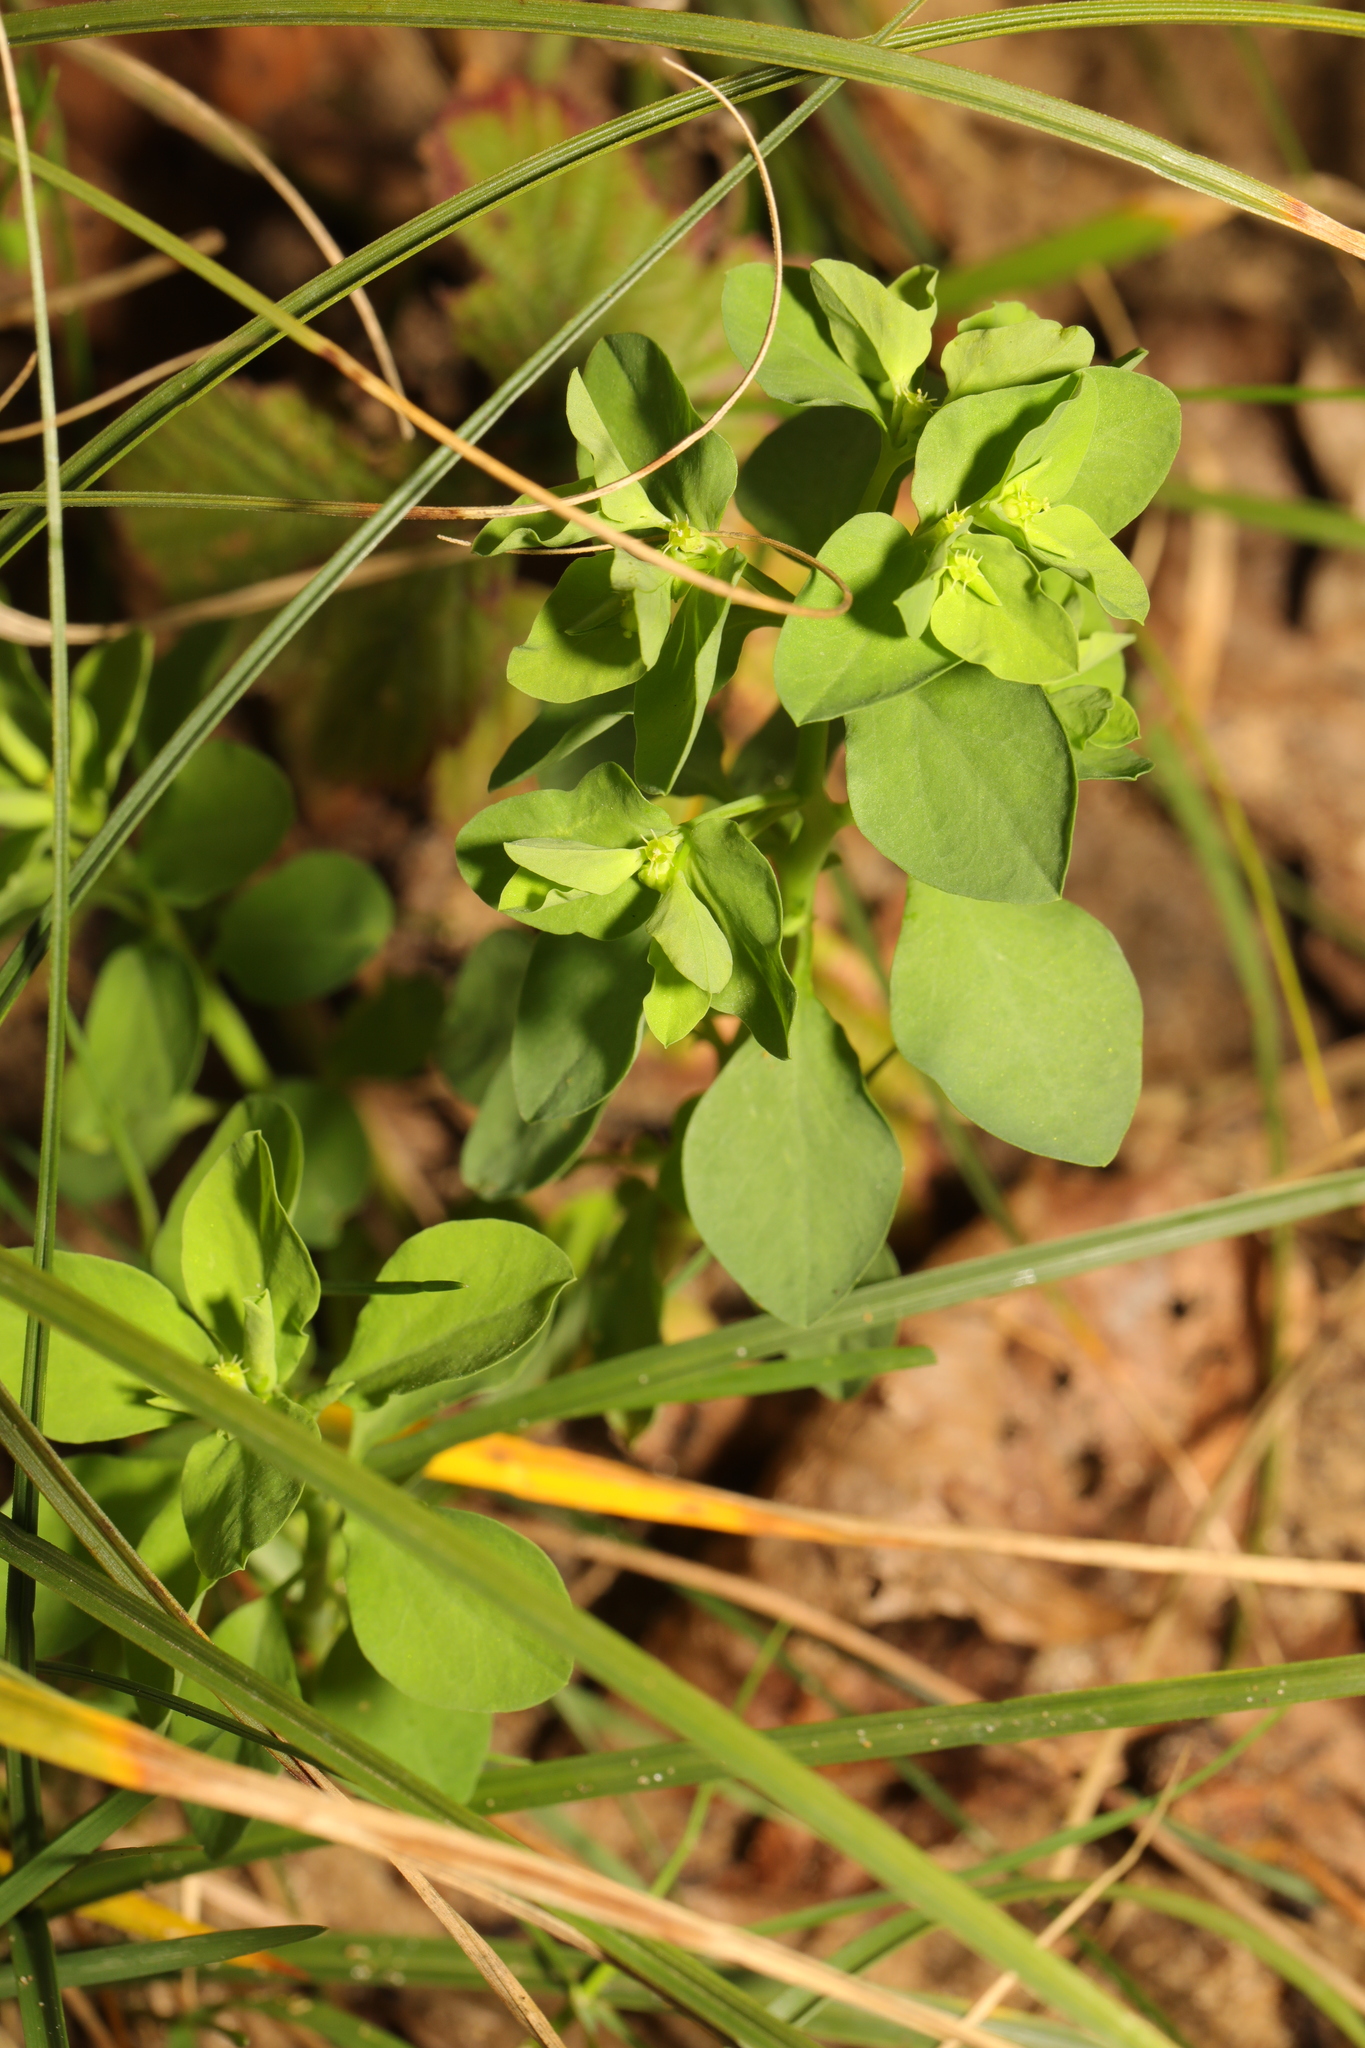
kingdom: Plantae
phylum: Tracheophyta
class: Magnoliopsida
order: Malpighiales
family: Euphorbiaceae
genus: Euphorbia
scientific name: Euphorbia peplus
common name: Petty spurge
